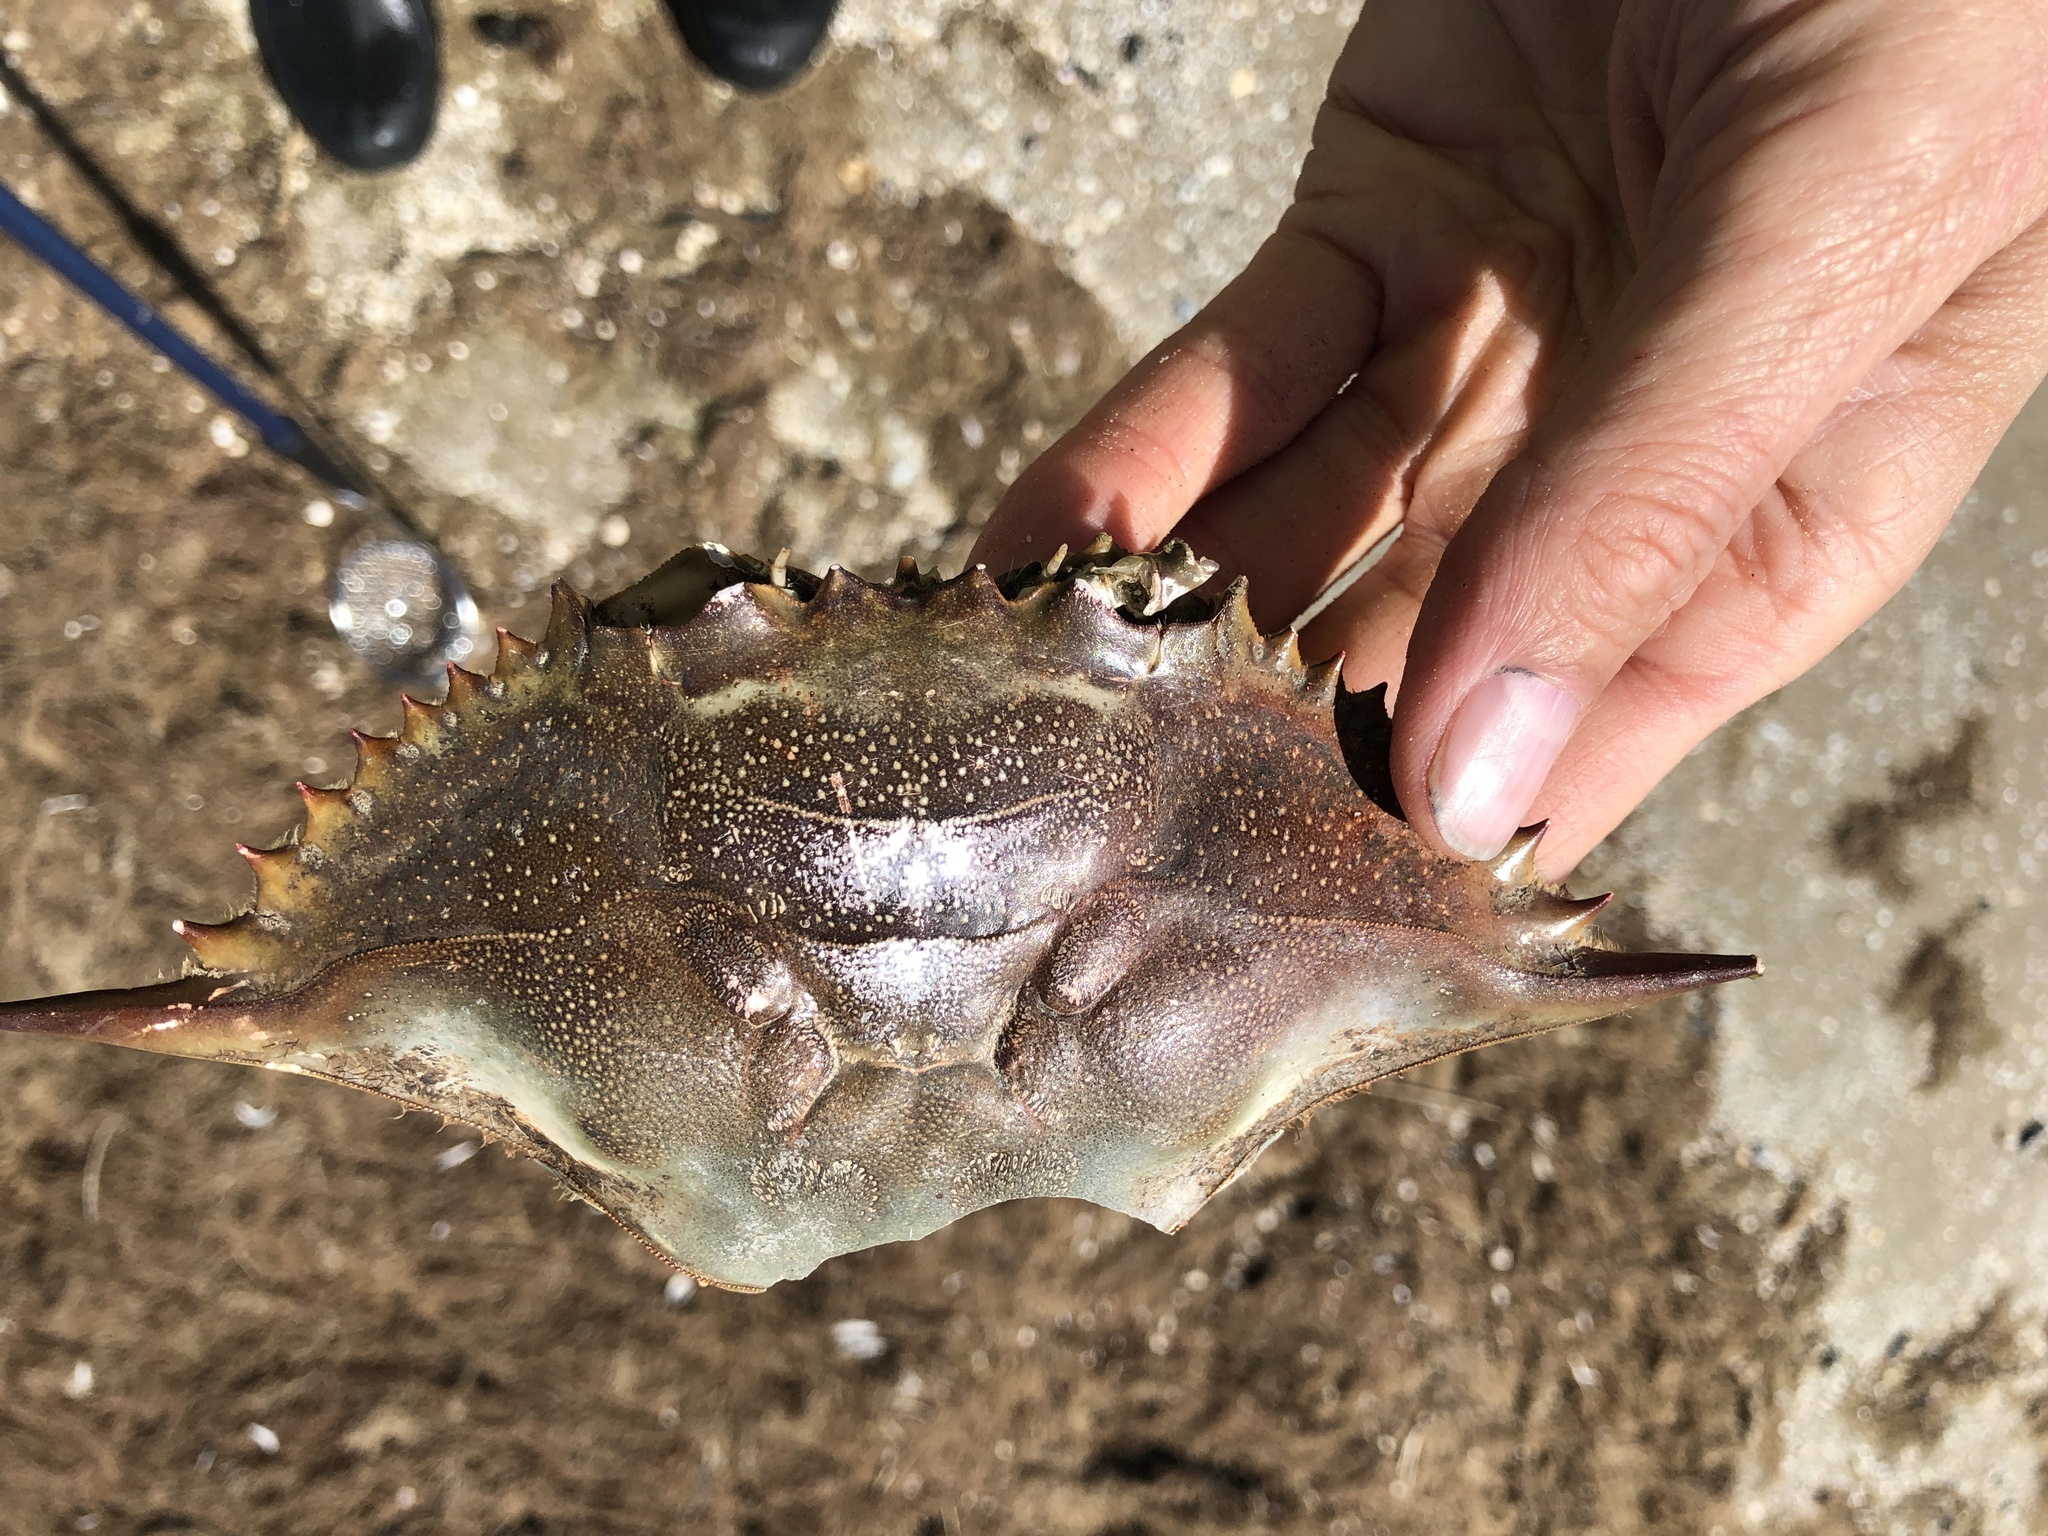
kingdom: Animalia
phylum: Arthropoda
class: Malacostraca
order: Decapoda
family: Portunidae
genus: Callinectes
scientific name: Callinectes sapidus
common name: Blue crab
